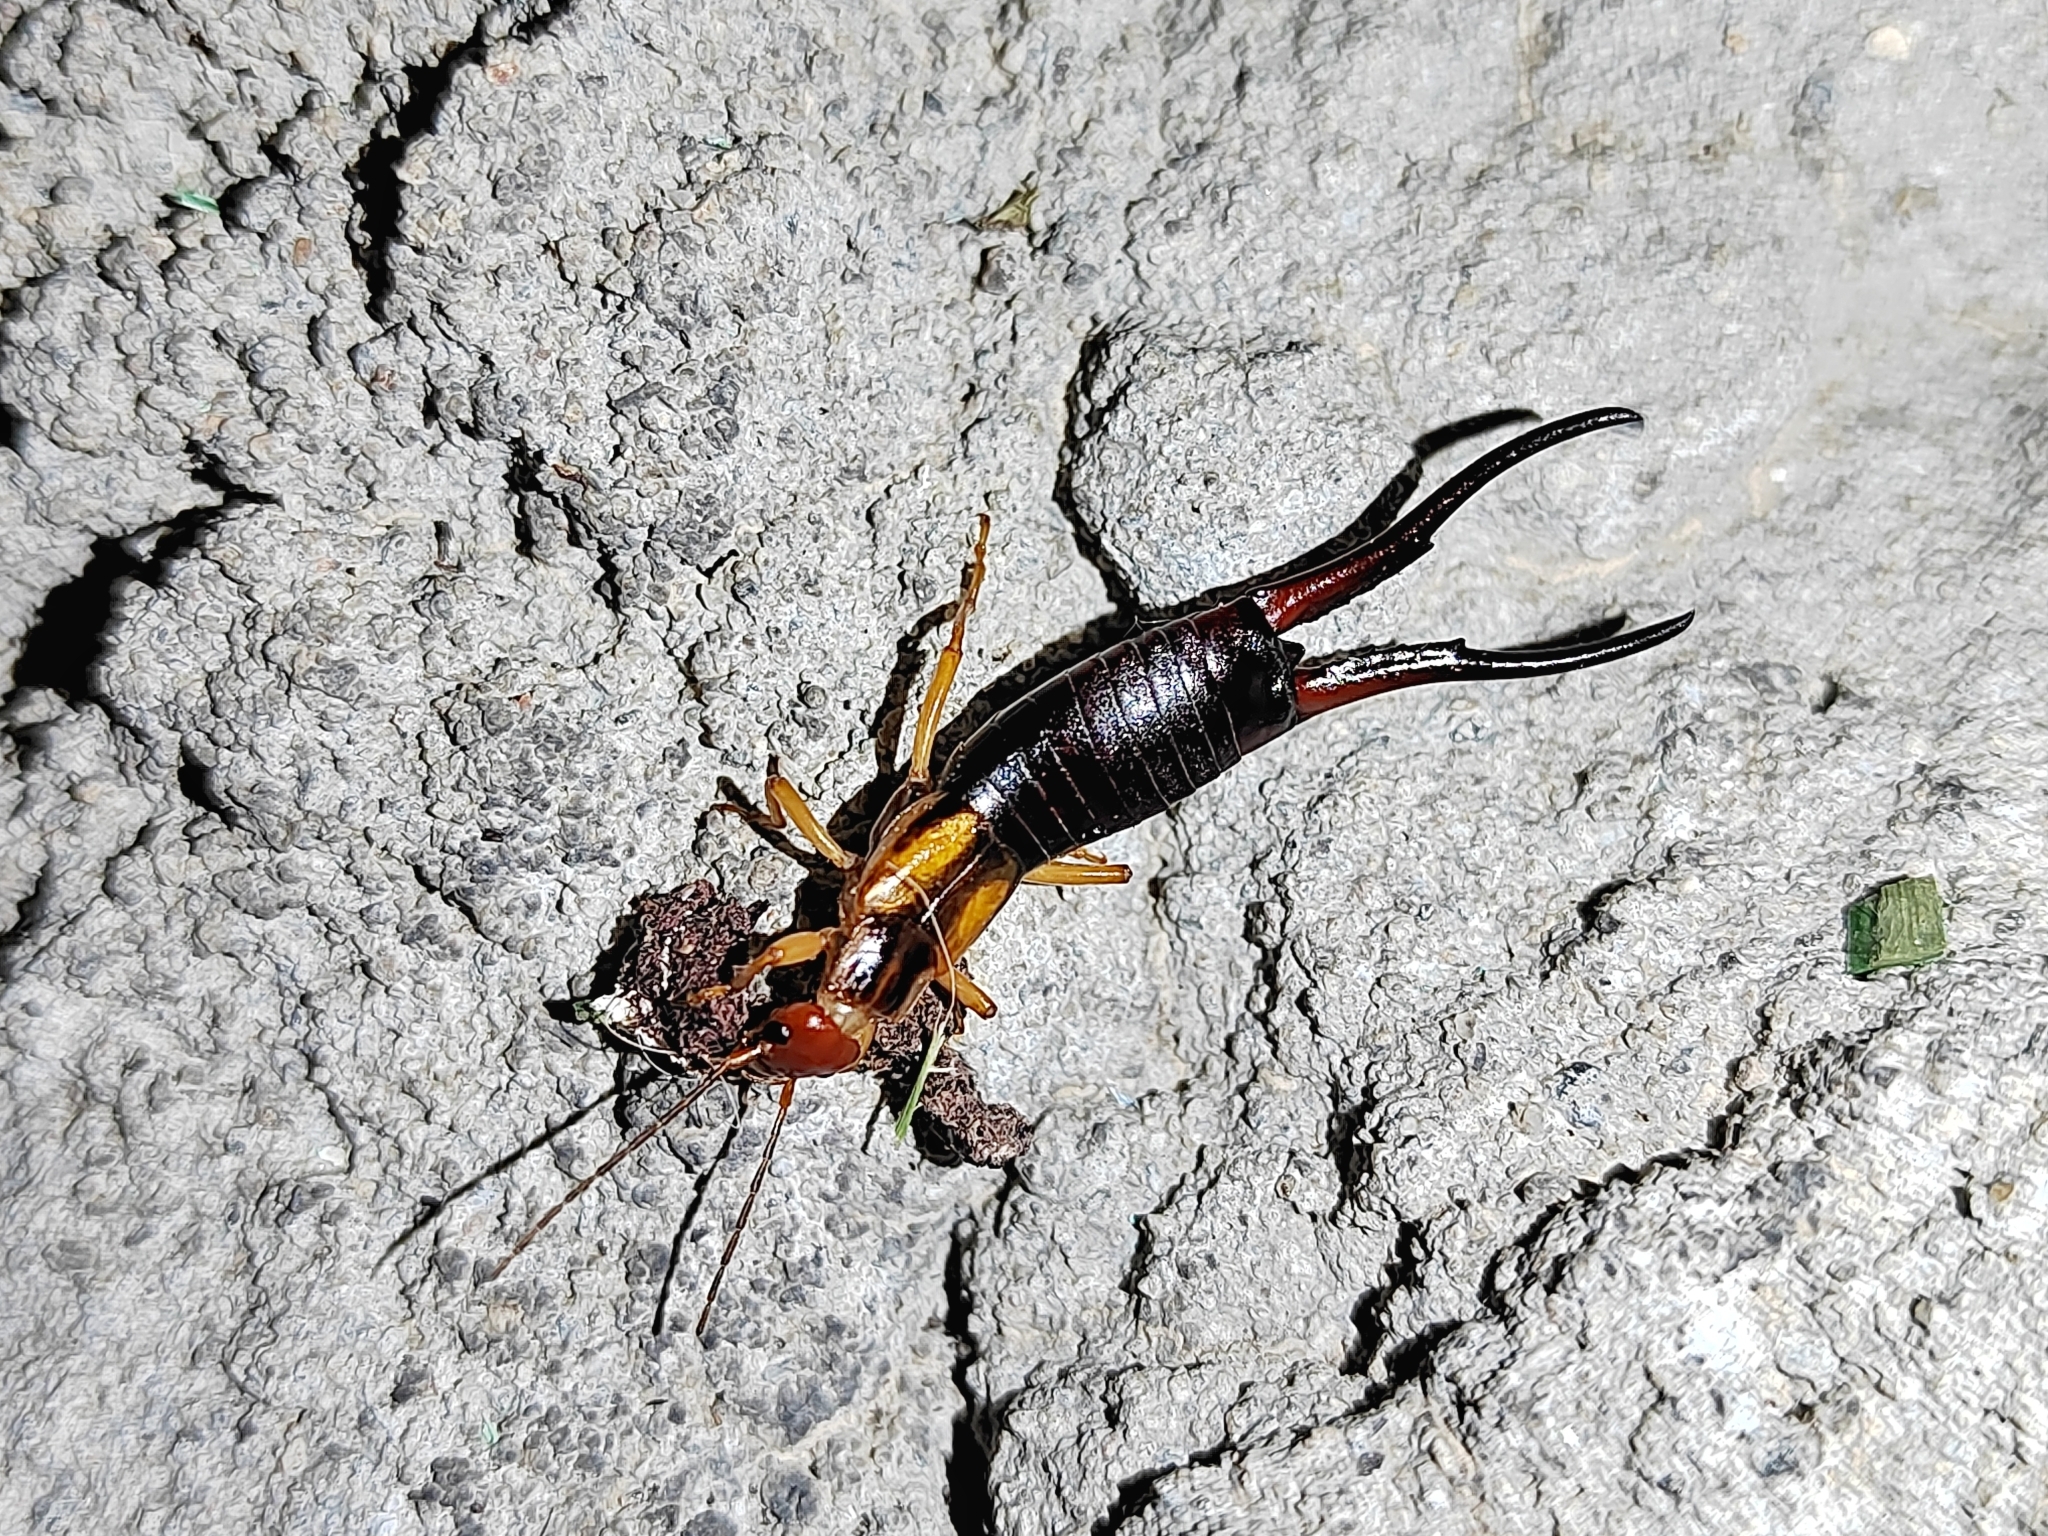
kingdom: Animalia
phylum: Arthropoda
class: Insecta
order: Dermaptera
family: Forficulidae
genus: Forficula
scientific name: Forficula tomis
